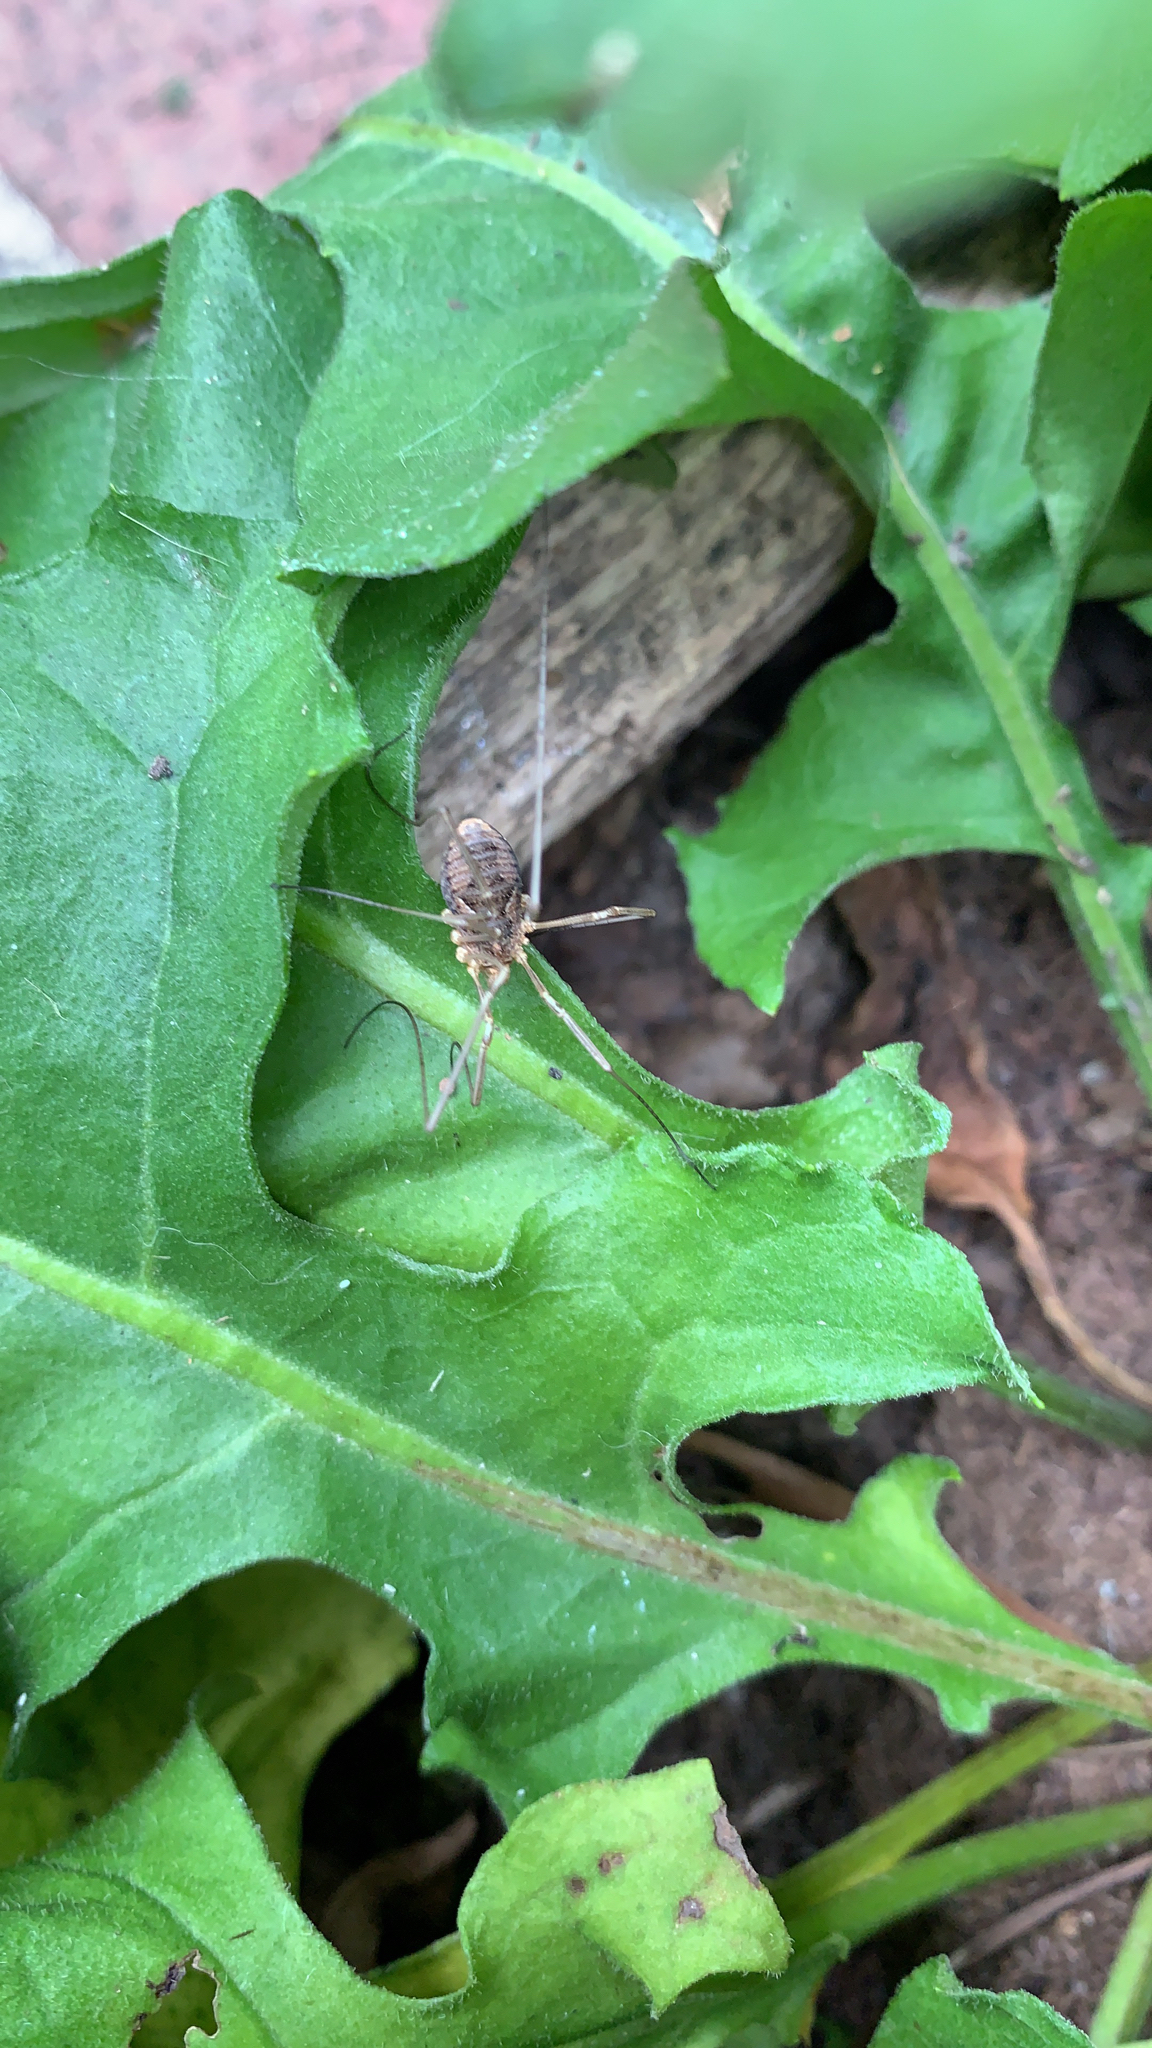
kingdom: Animalia
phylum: Arthropoda
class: Arachnida
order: Opiliones
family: Phalangiidae
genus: Phalangium
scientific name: Phalangium opilio
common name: Daddy longleg
